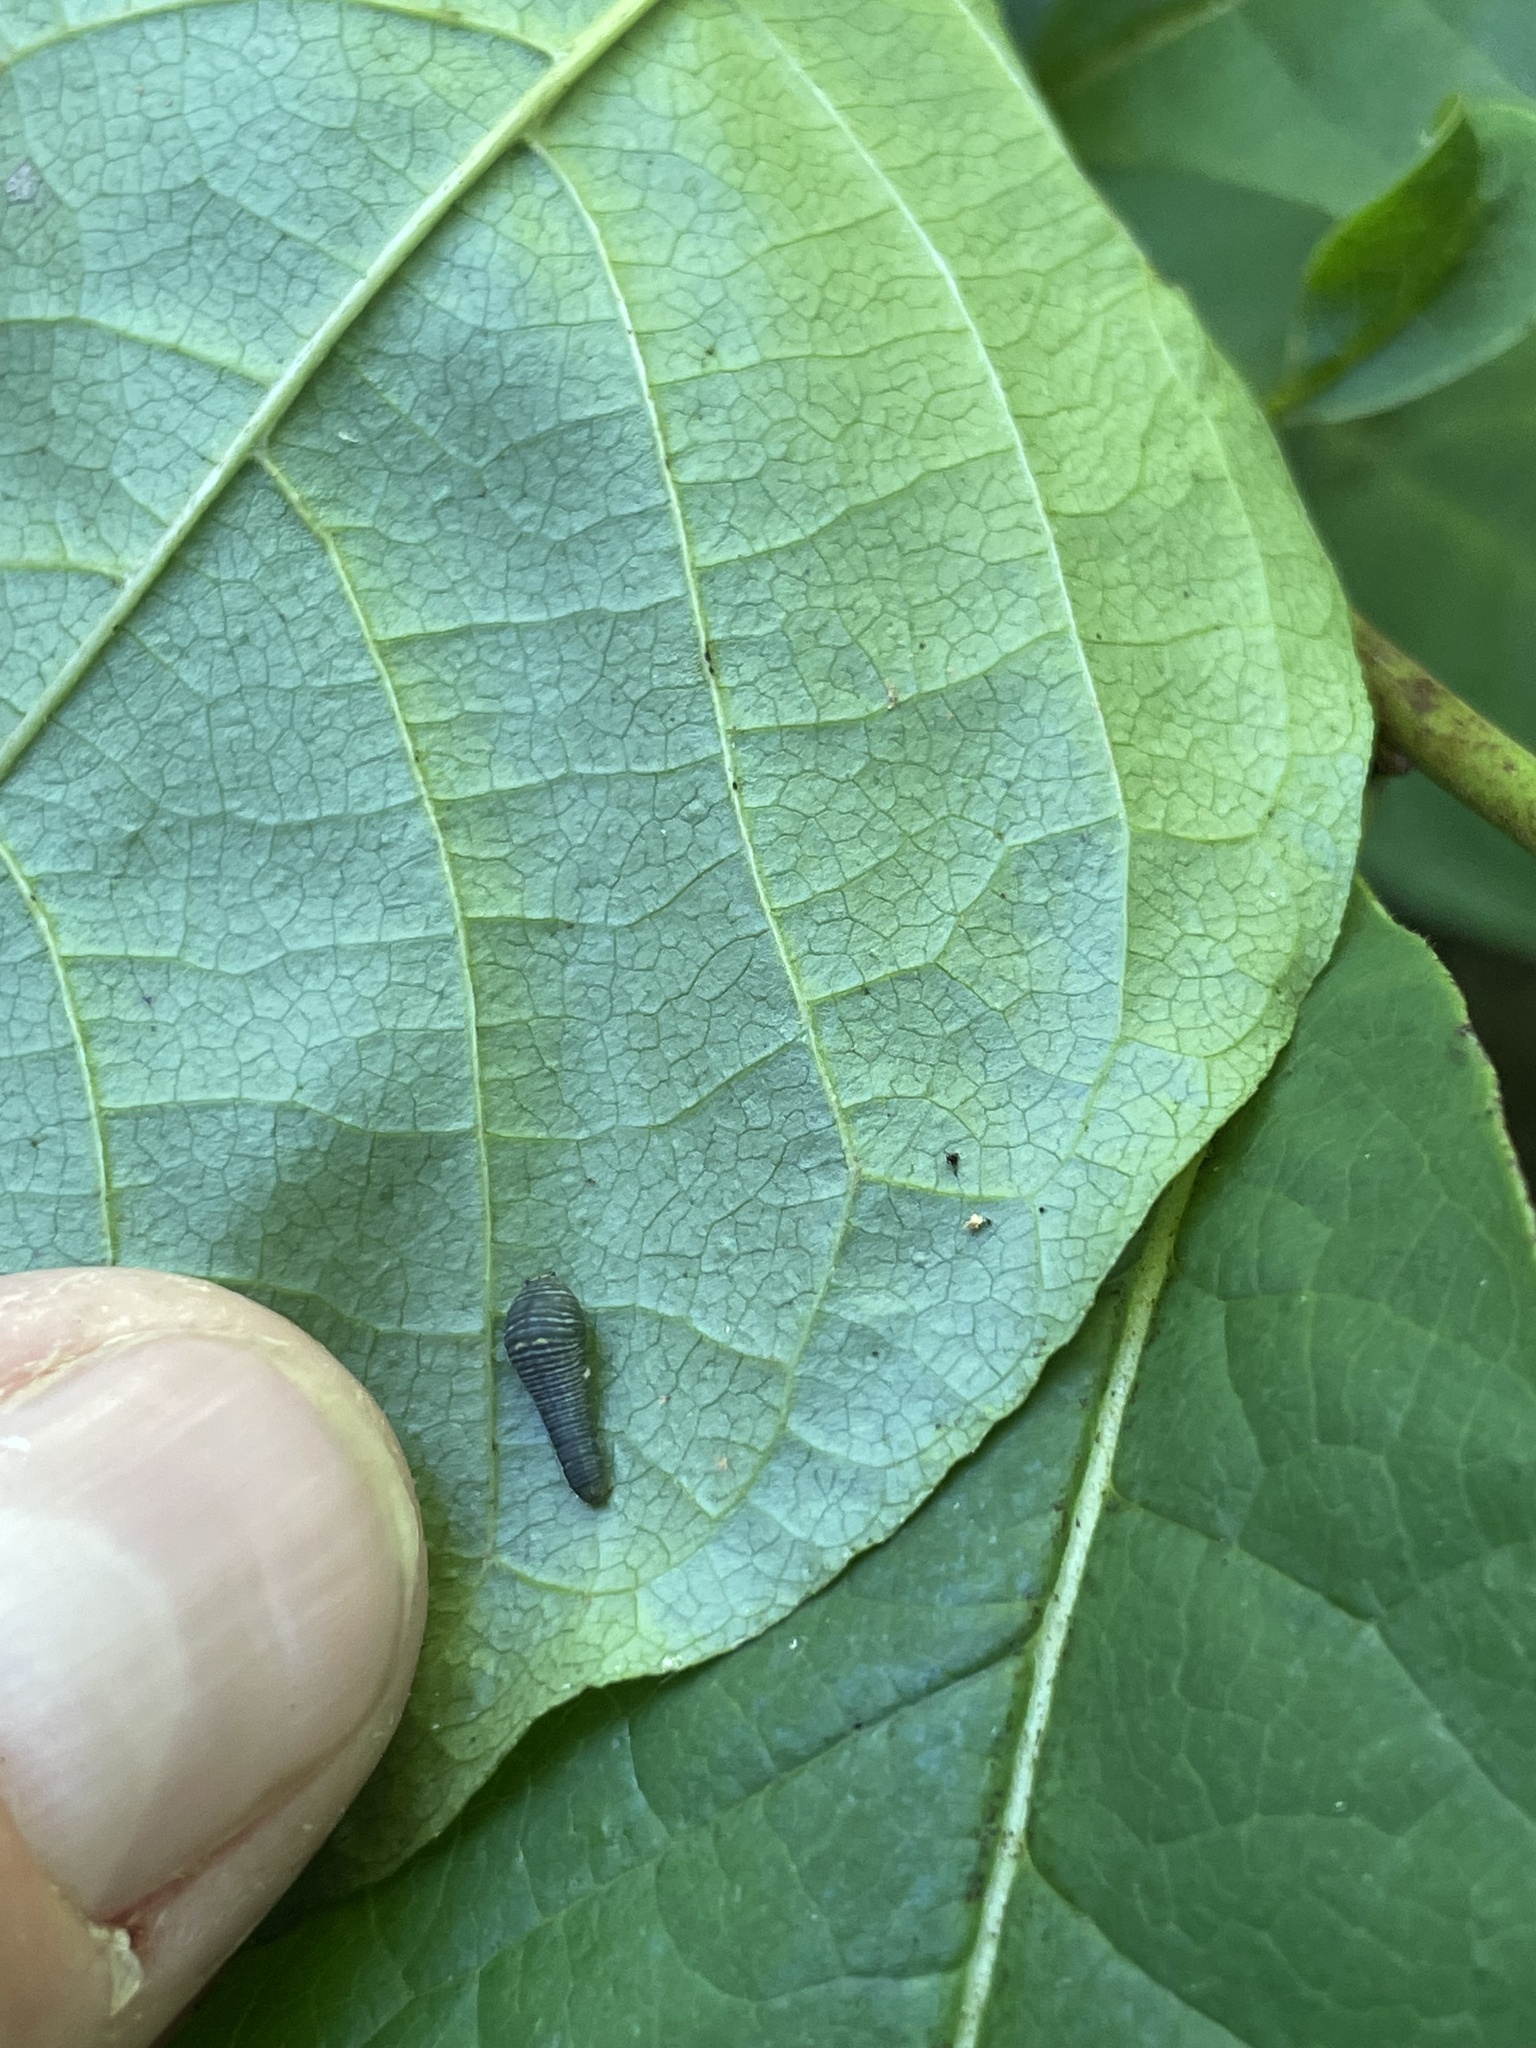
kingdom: Animalia
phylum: Arthropoda
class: Insecta
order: Lepidoptera
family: Papilionidae
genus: Protographium
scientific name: Protographium marcellus
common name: Zebra swallowtail
